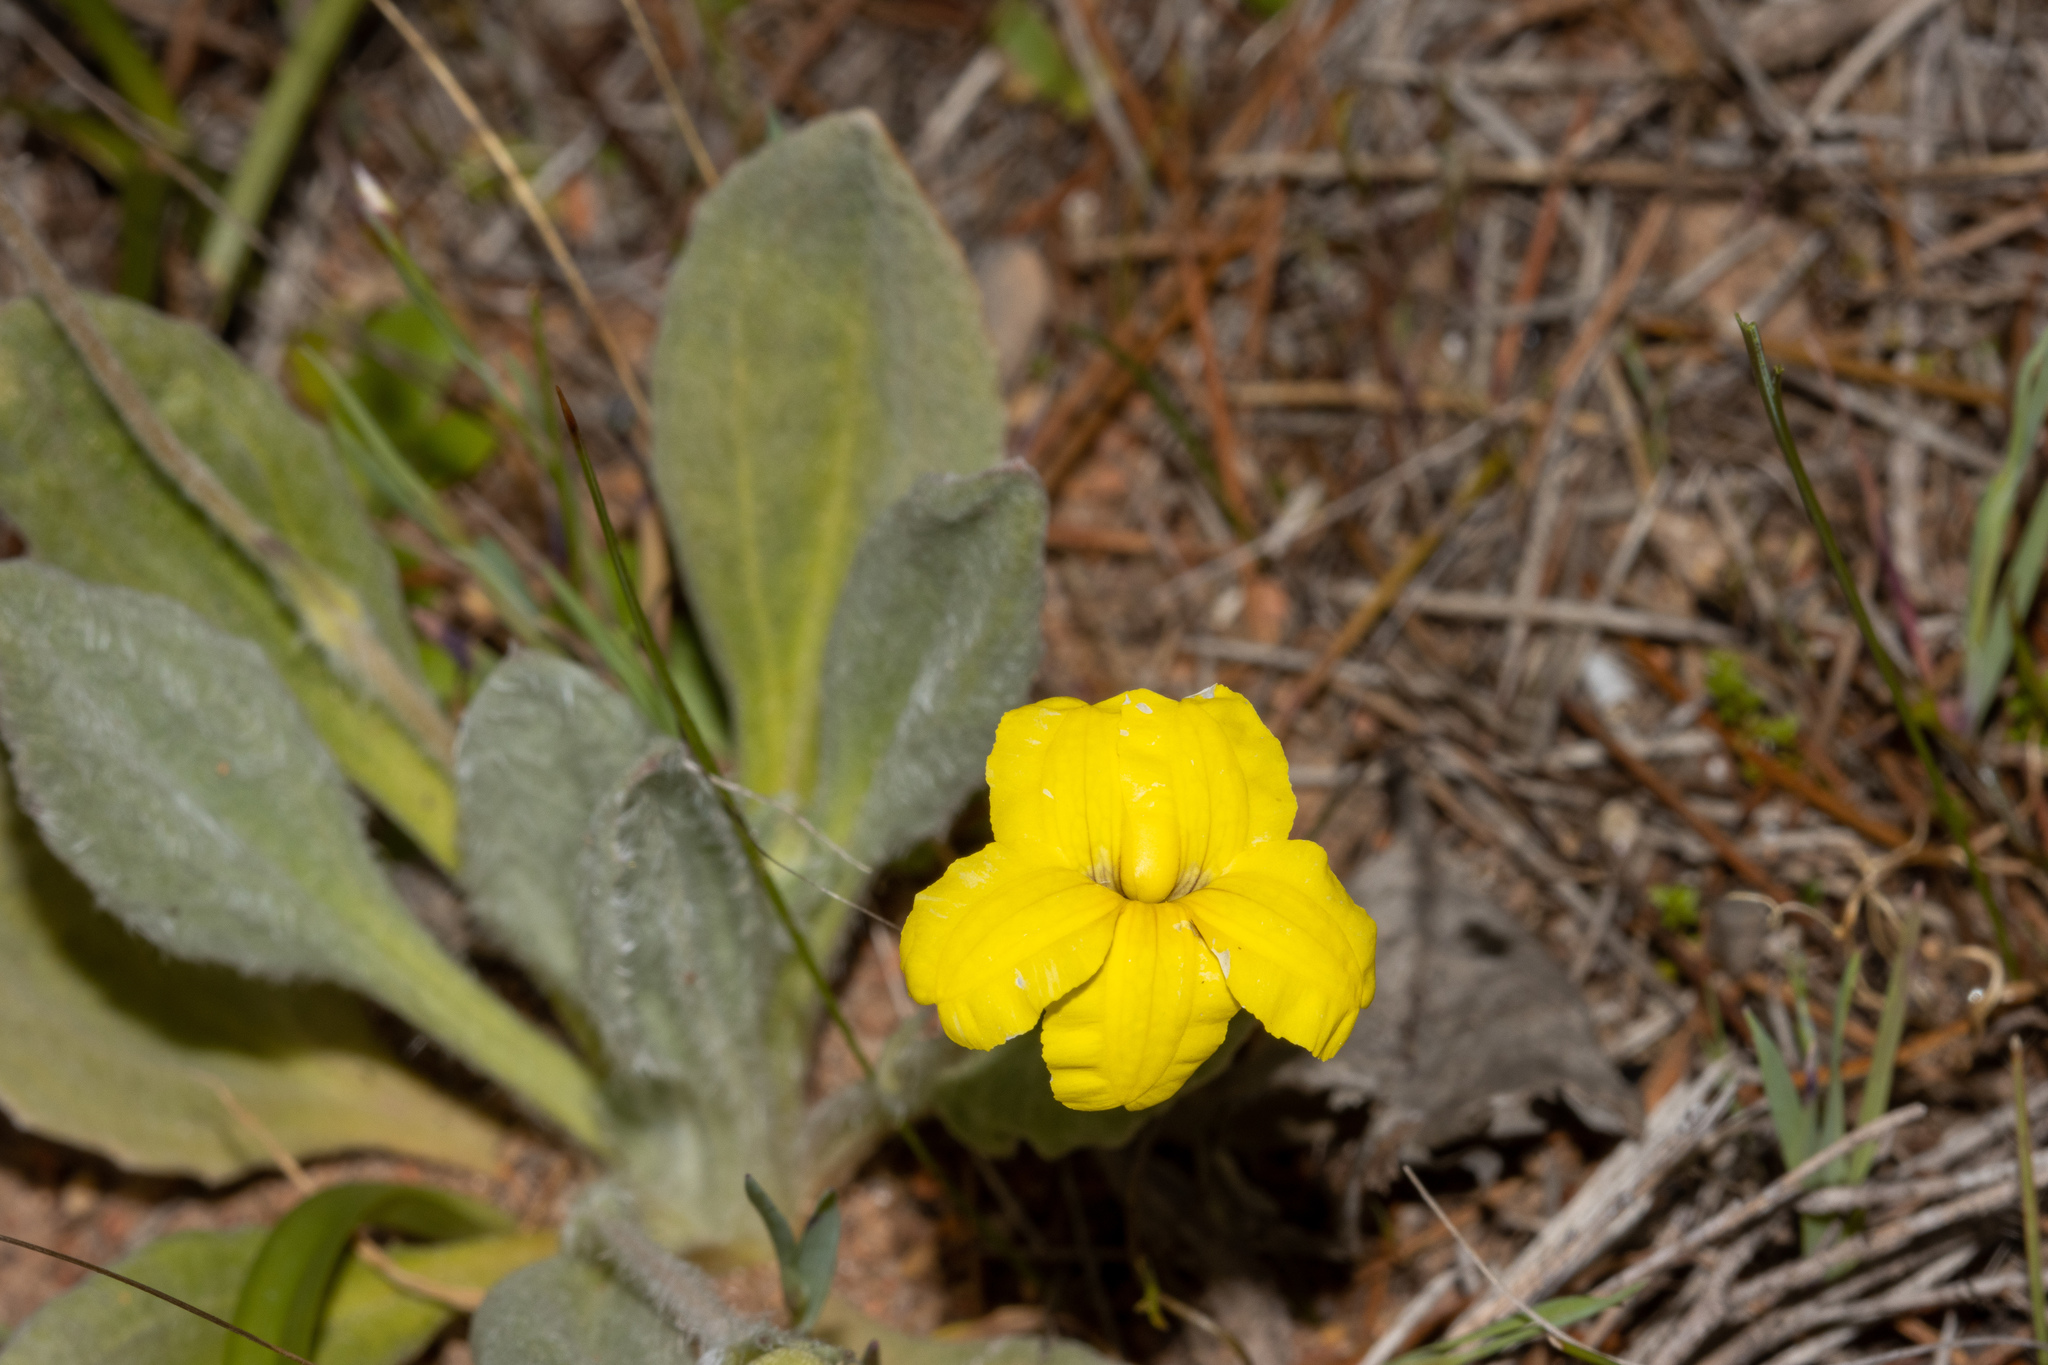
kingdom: Plantae
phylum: Tracheophyta
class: Magnoliopsida
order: Asterales
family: Goodeniaceae
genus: Goodenia
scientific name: Goodenia robusta
